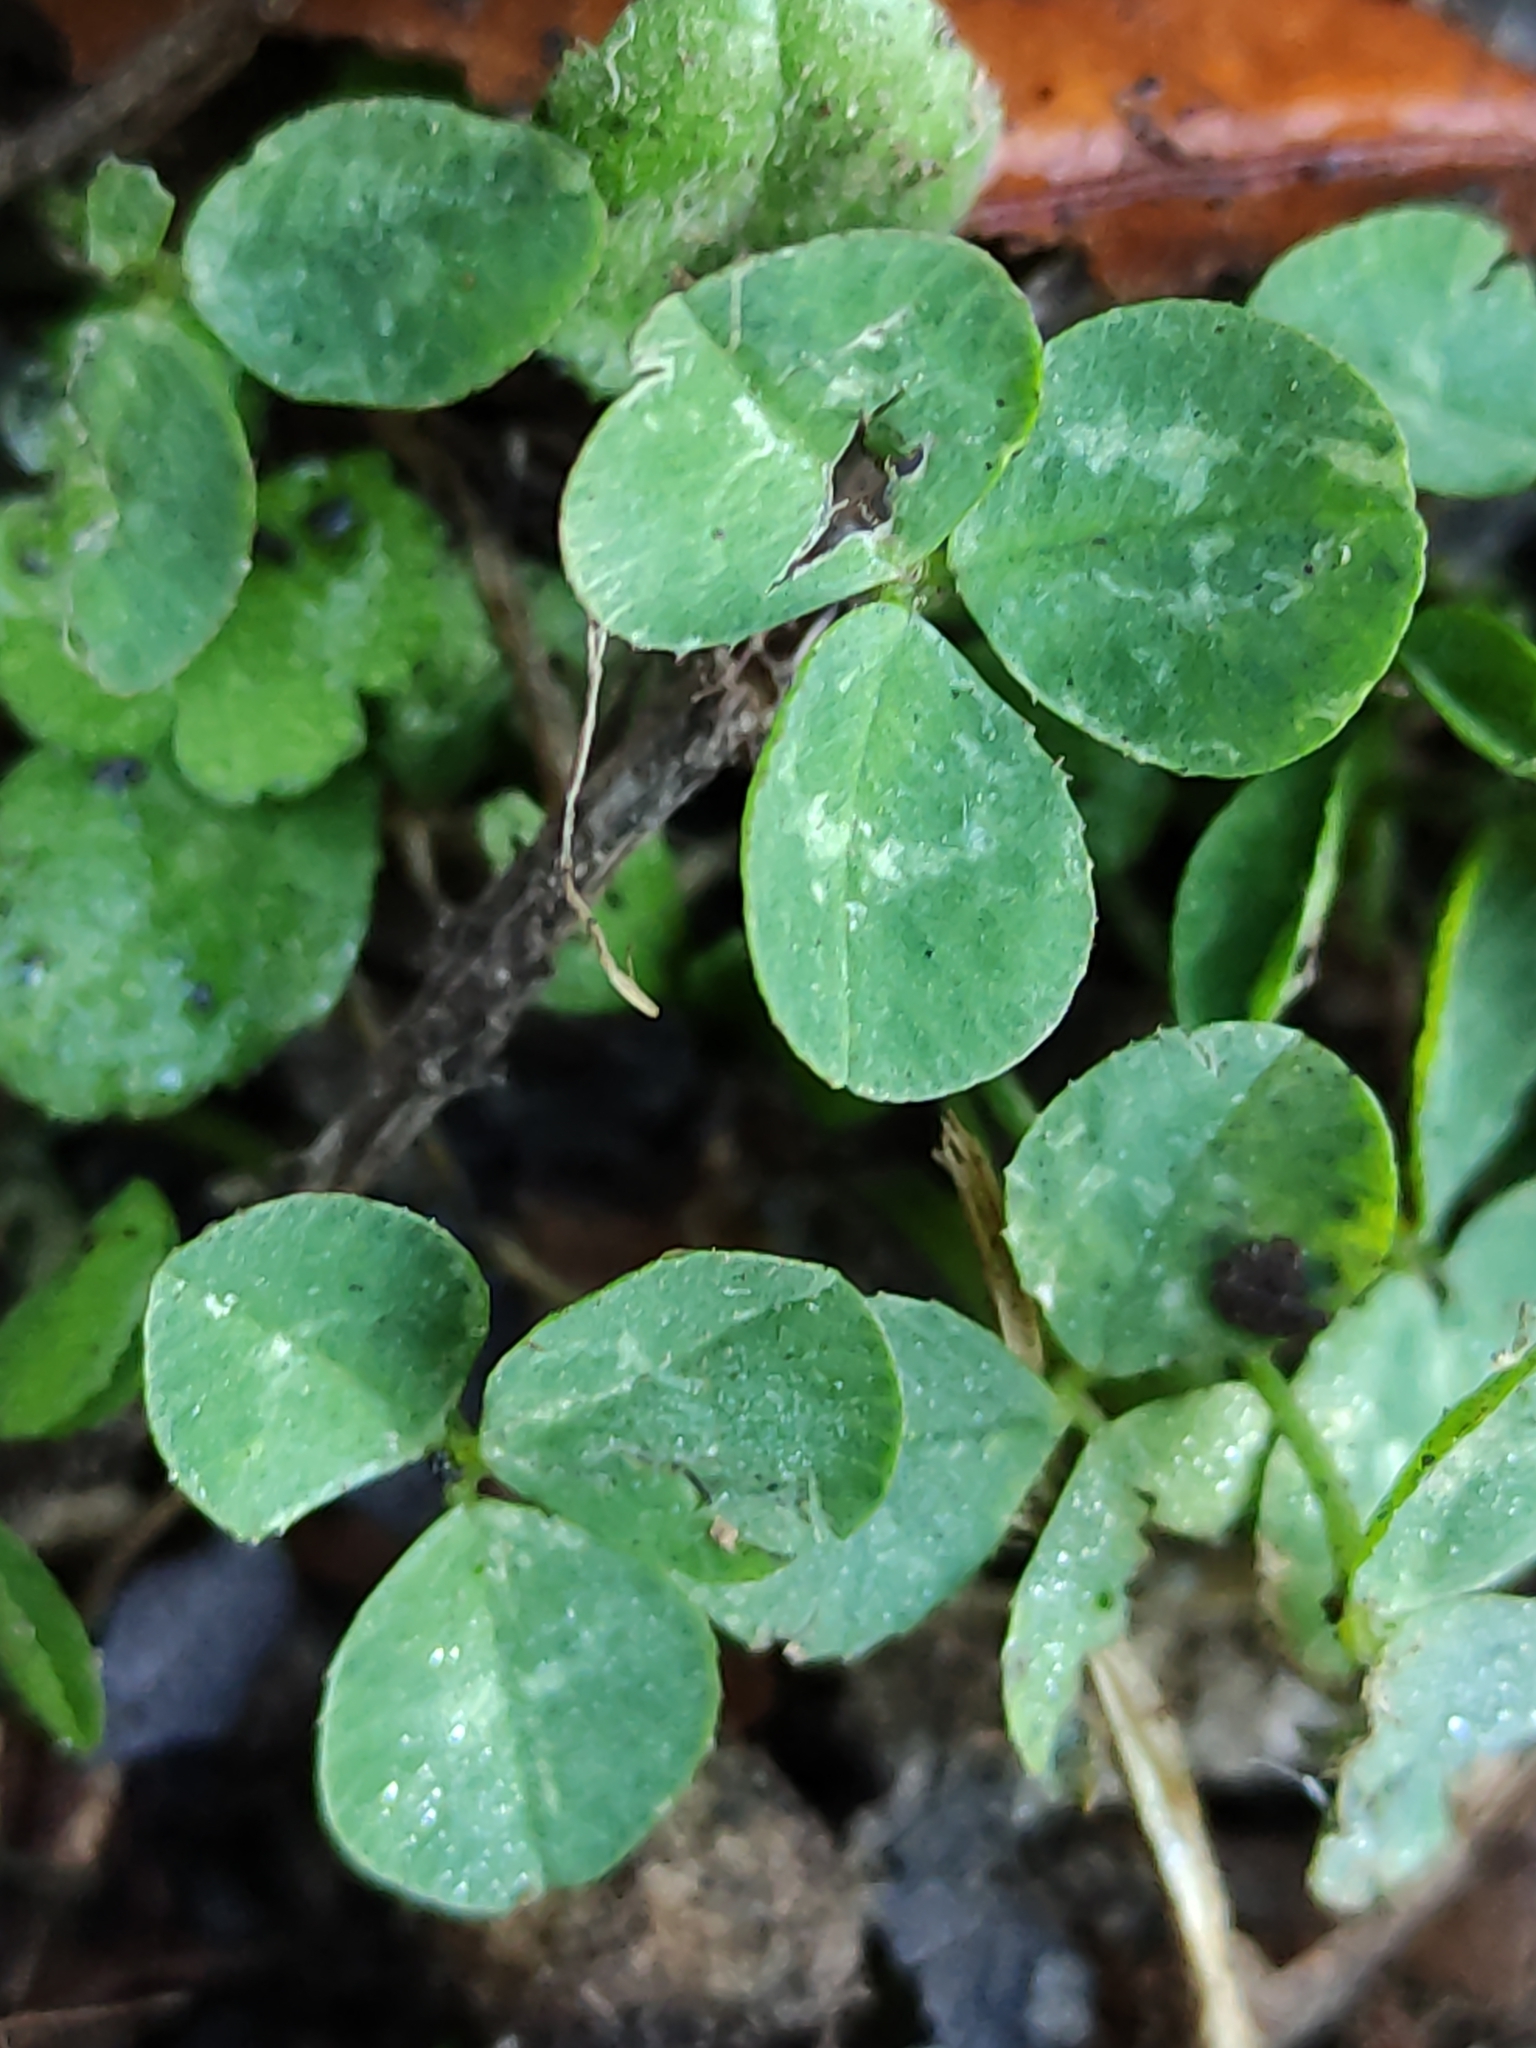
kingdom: Plantae
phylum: Tracheophyta
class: Magnoliopsida
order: Fabales
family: Fabaceae
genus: Trifolium
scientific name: Trifolium repens
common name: White clover
